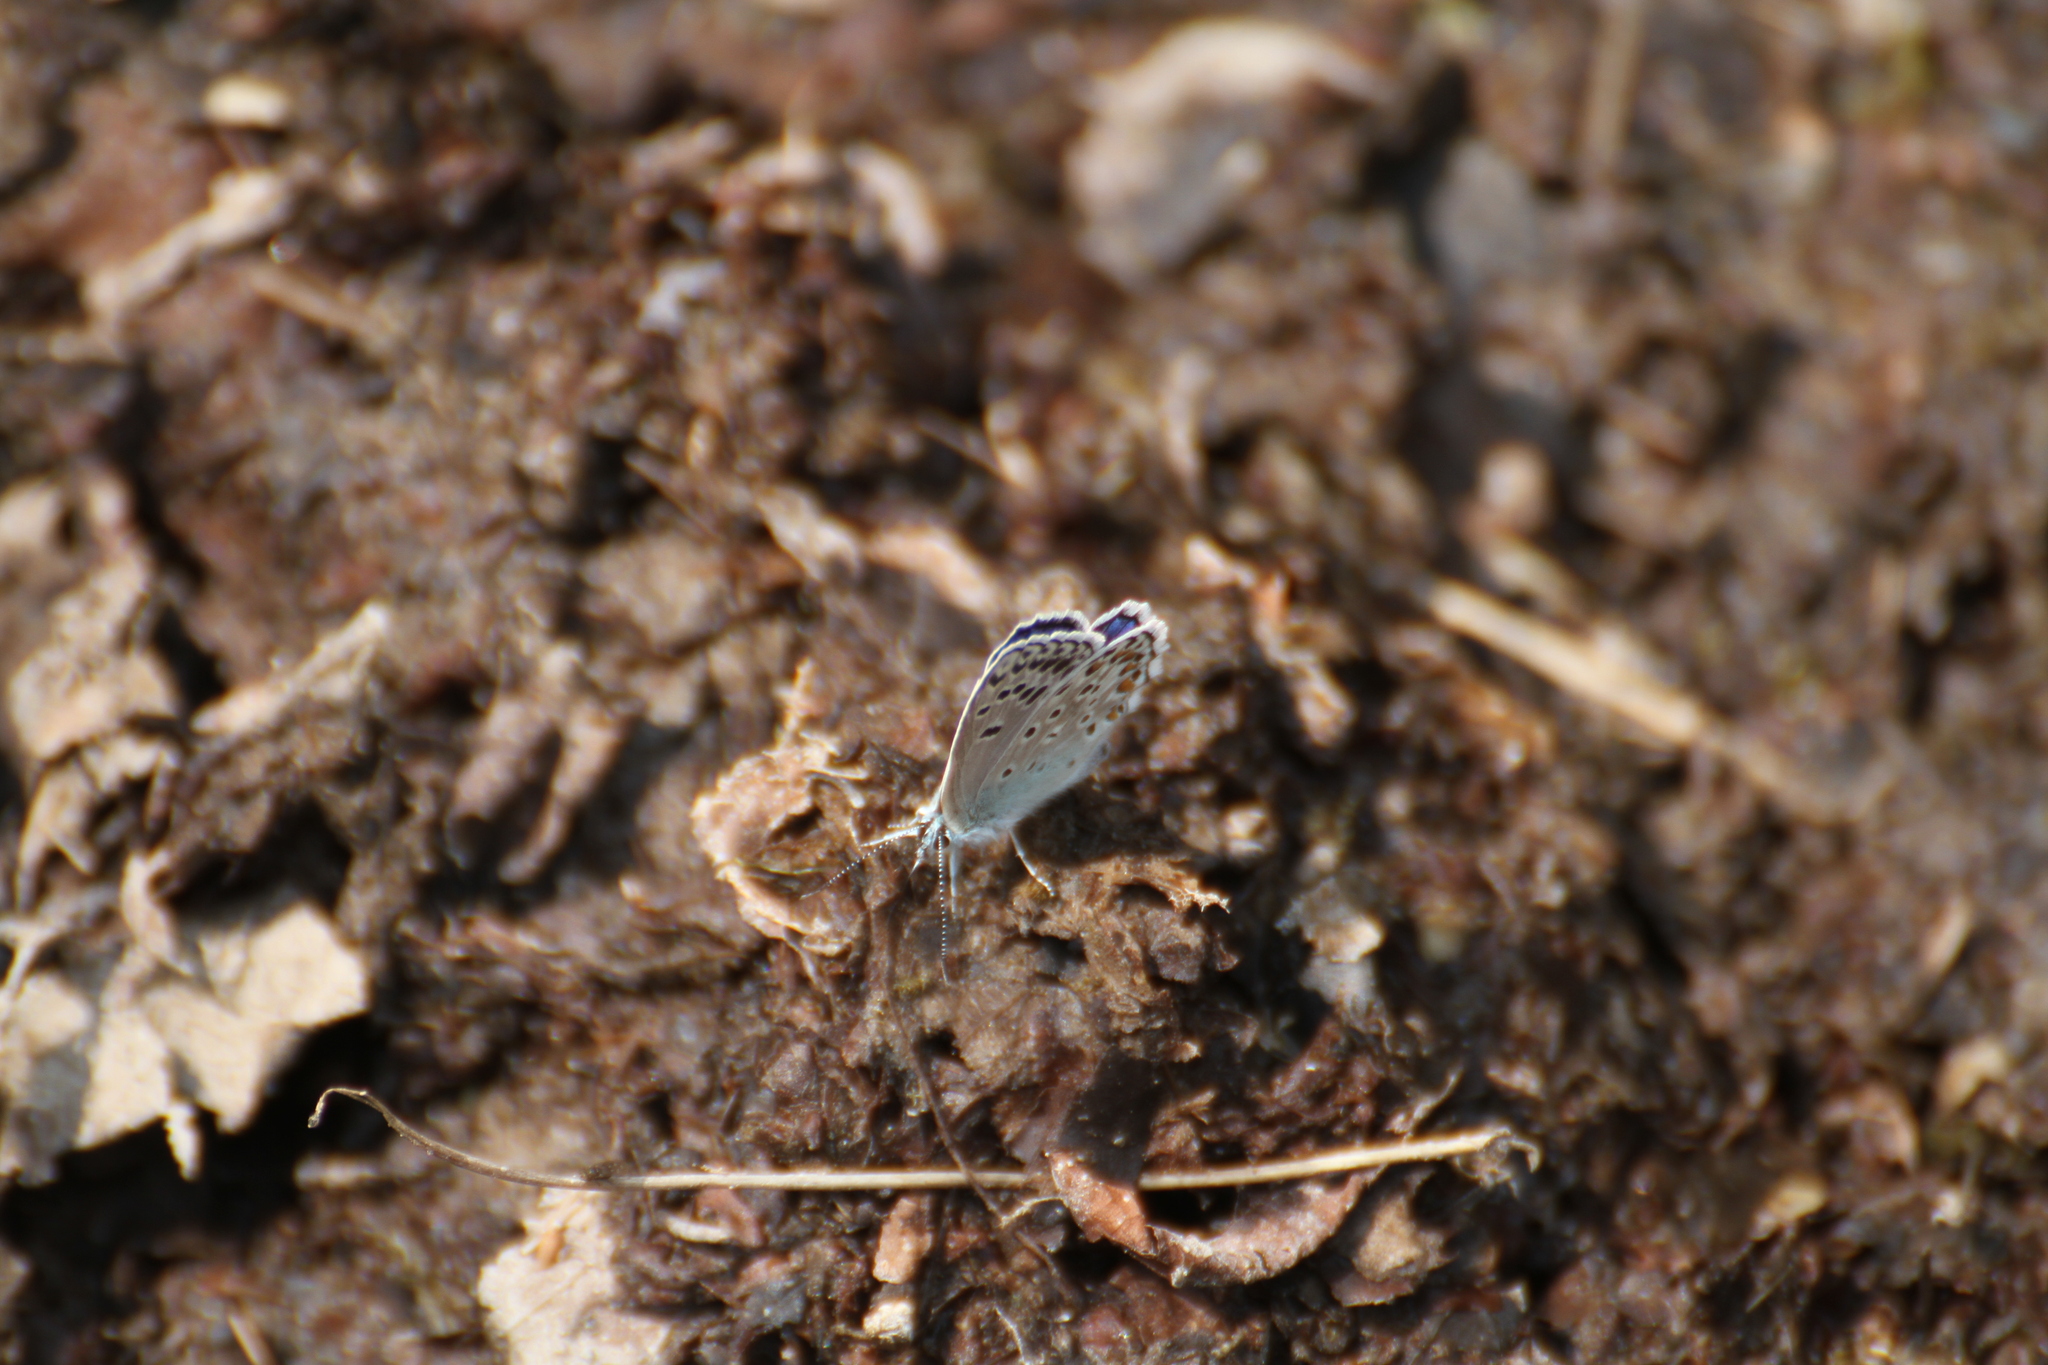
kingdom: Animalia
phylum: Arthropoda
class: Insecta
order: Lepidoptera
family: Lycaenidae
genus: Plebicula
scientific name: Plebicula escheri
